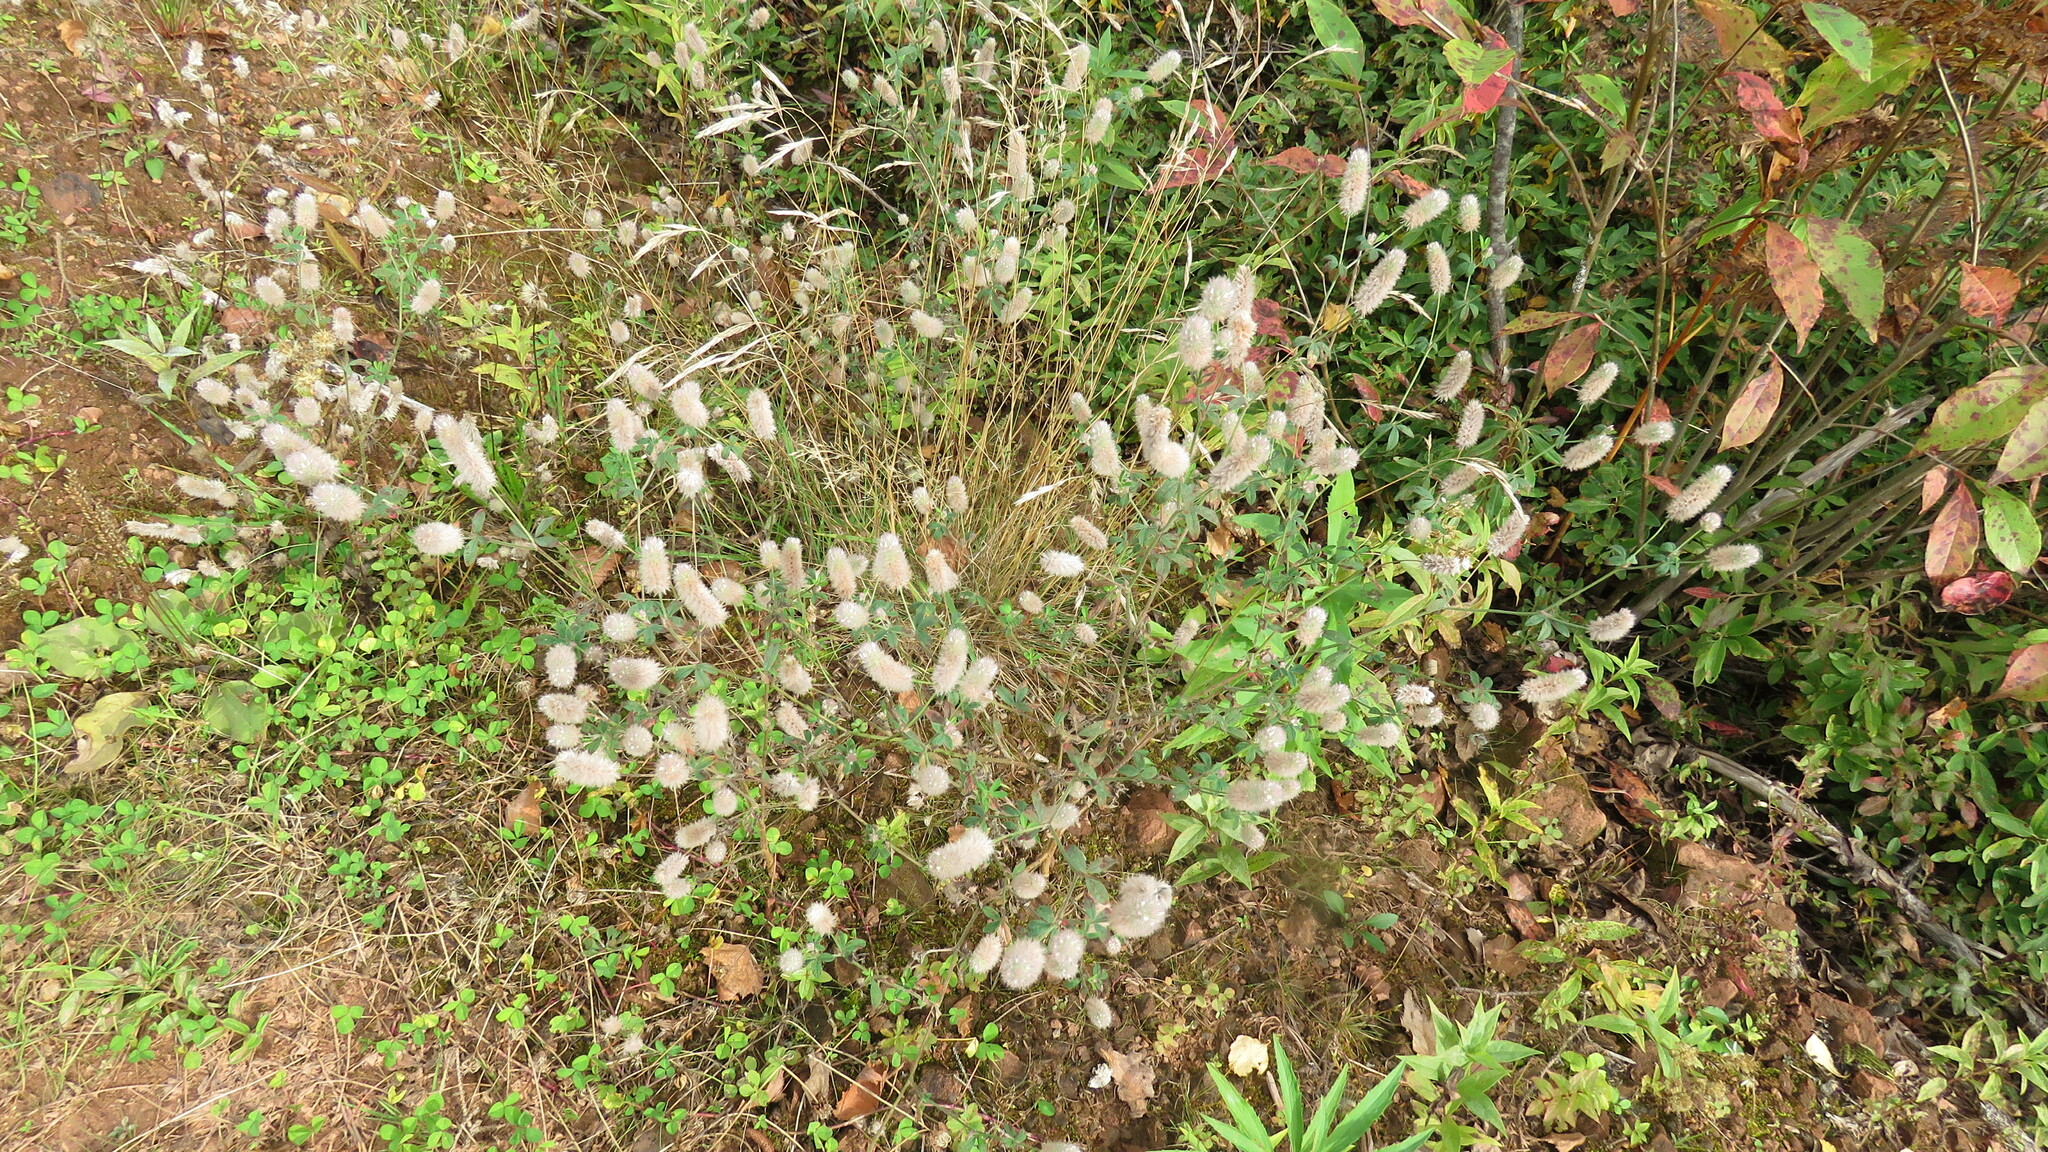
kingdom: Plantae
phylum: Tracheophyta
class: Magnoliopsida
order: Fabales
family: Fabaceae
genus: Trifolium
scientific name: Trifolium arvense
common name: Hare's-foot clover
